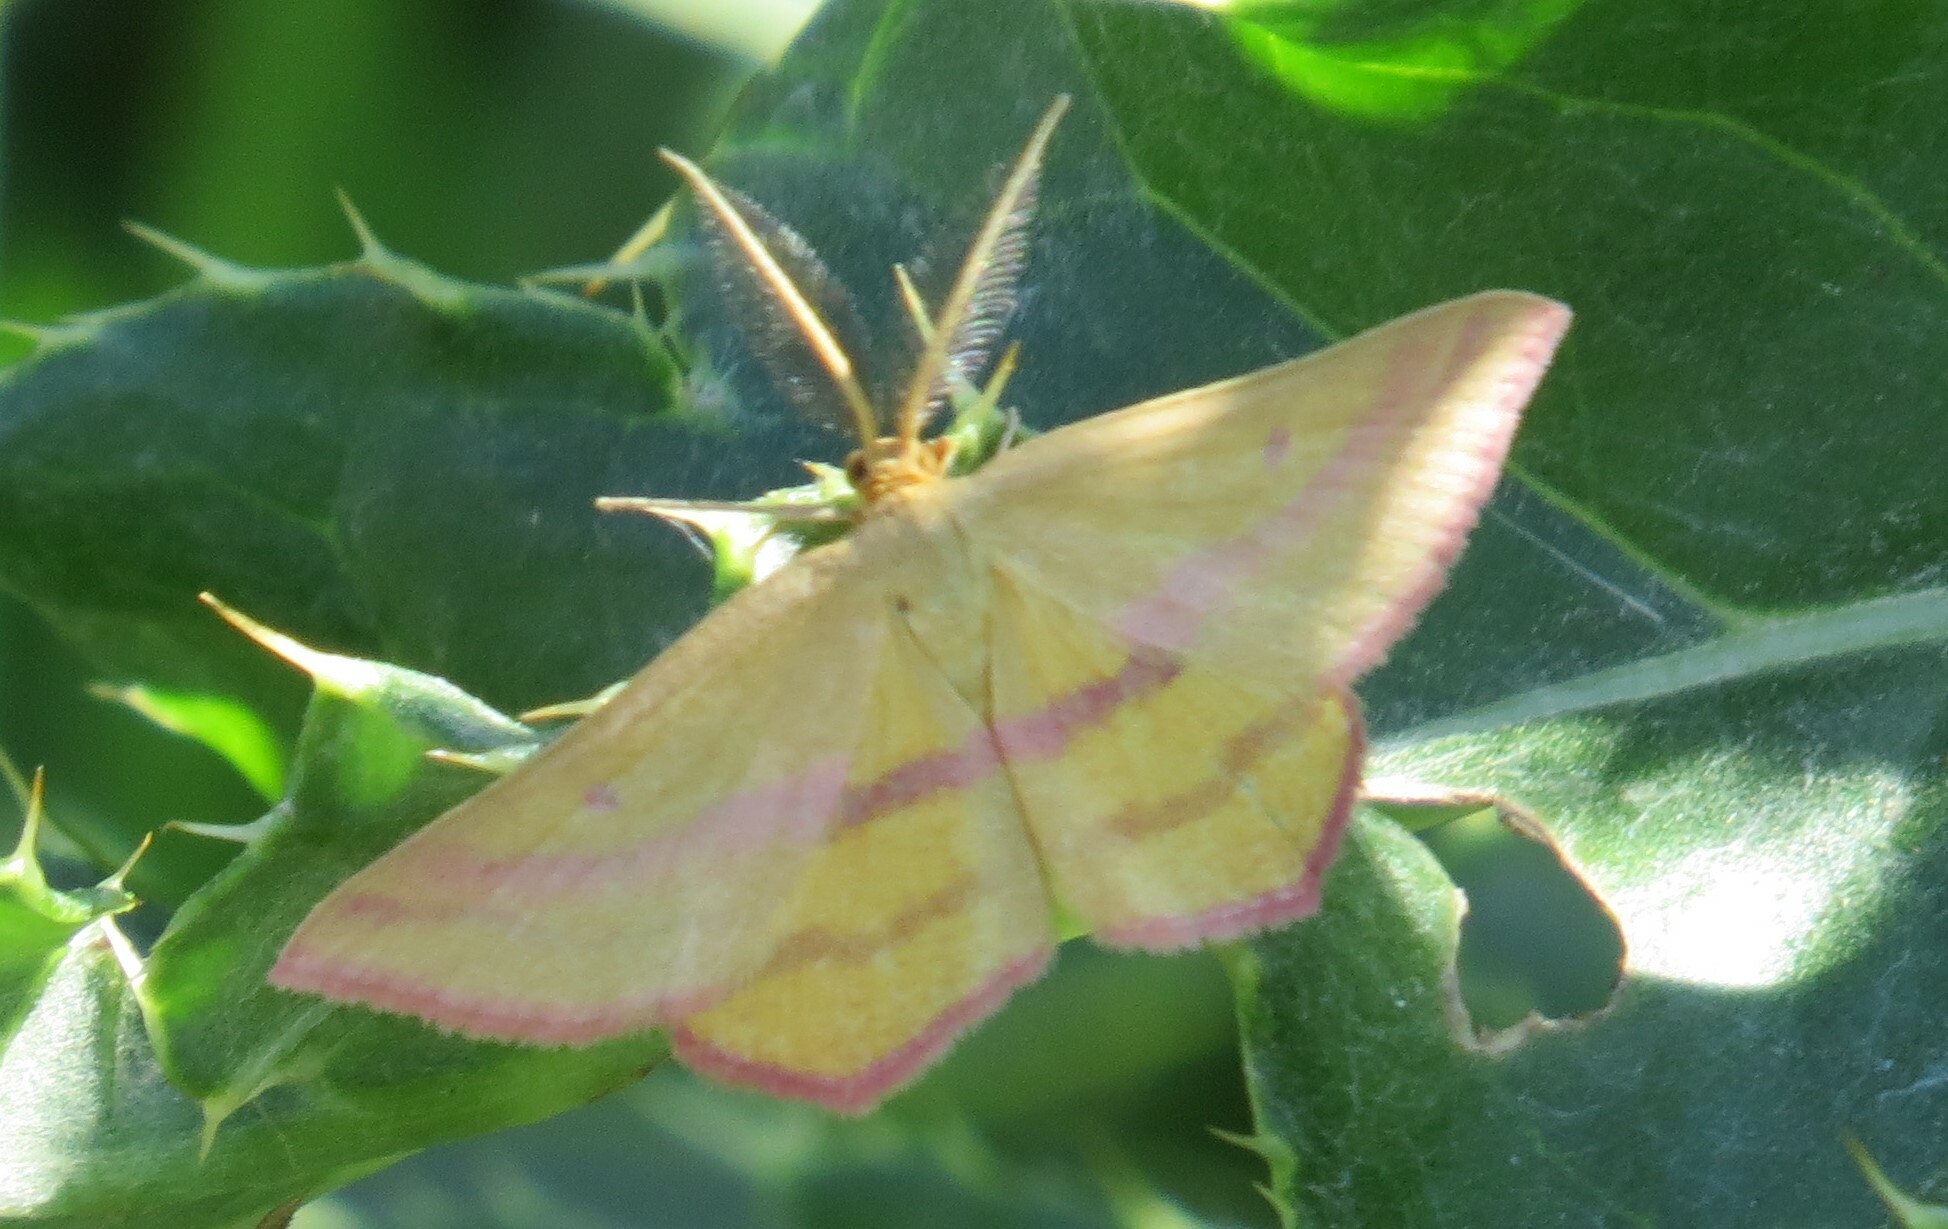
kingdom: Animalia
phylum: Arthropoda
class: Insecta
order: Lepidoptera
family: Geometridae
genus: Haematopis
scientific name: Haematopis grataria
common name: Chickweed geometer
